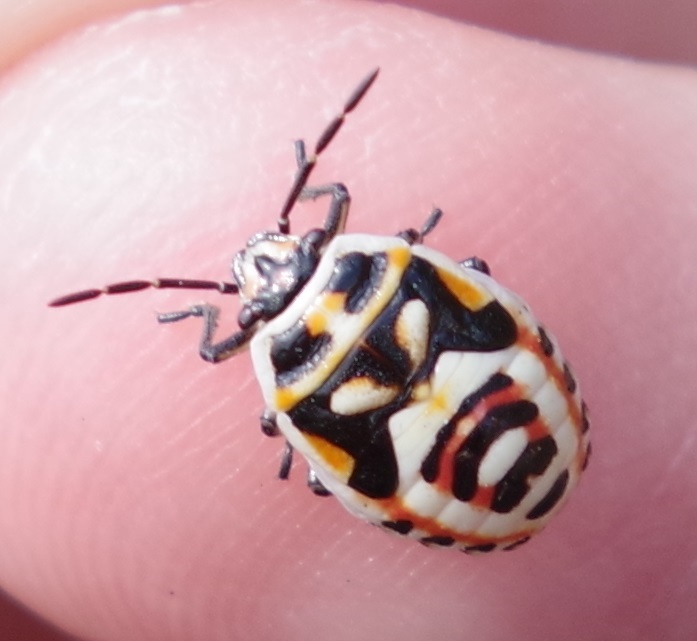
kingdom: Animalia
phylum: Arthropoda
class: Insecta
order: Hemiptera
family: Pentatomidae
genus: Eurydema
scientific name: Eurydema ornata
